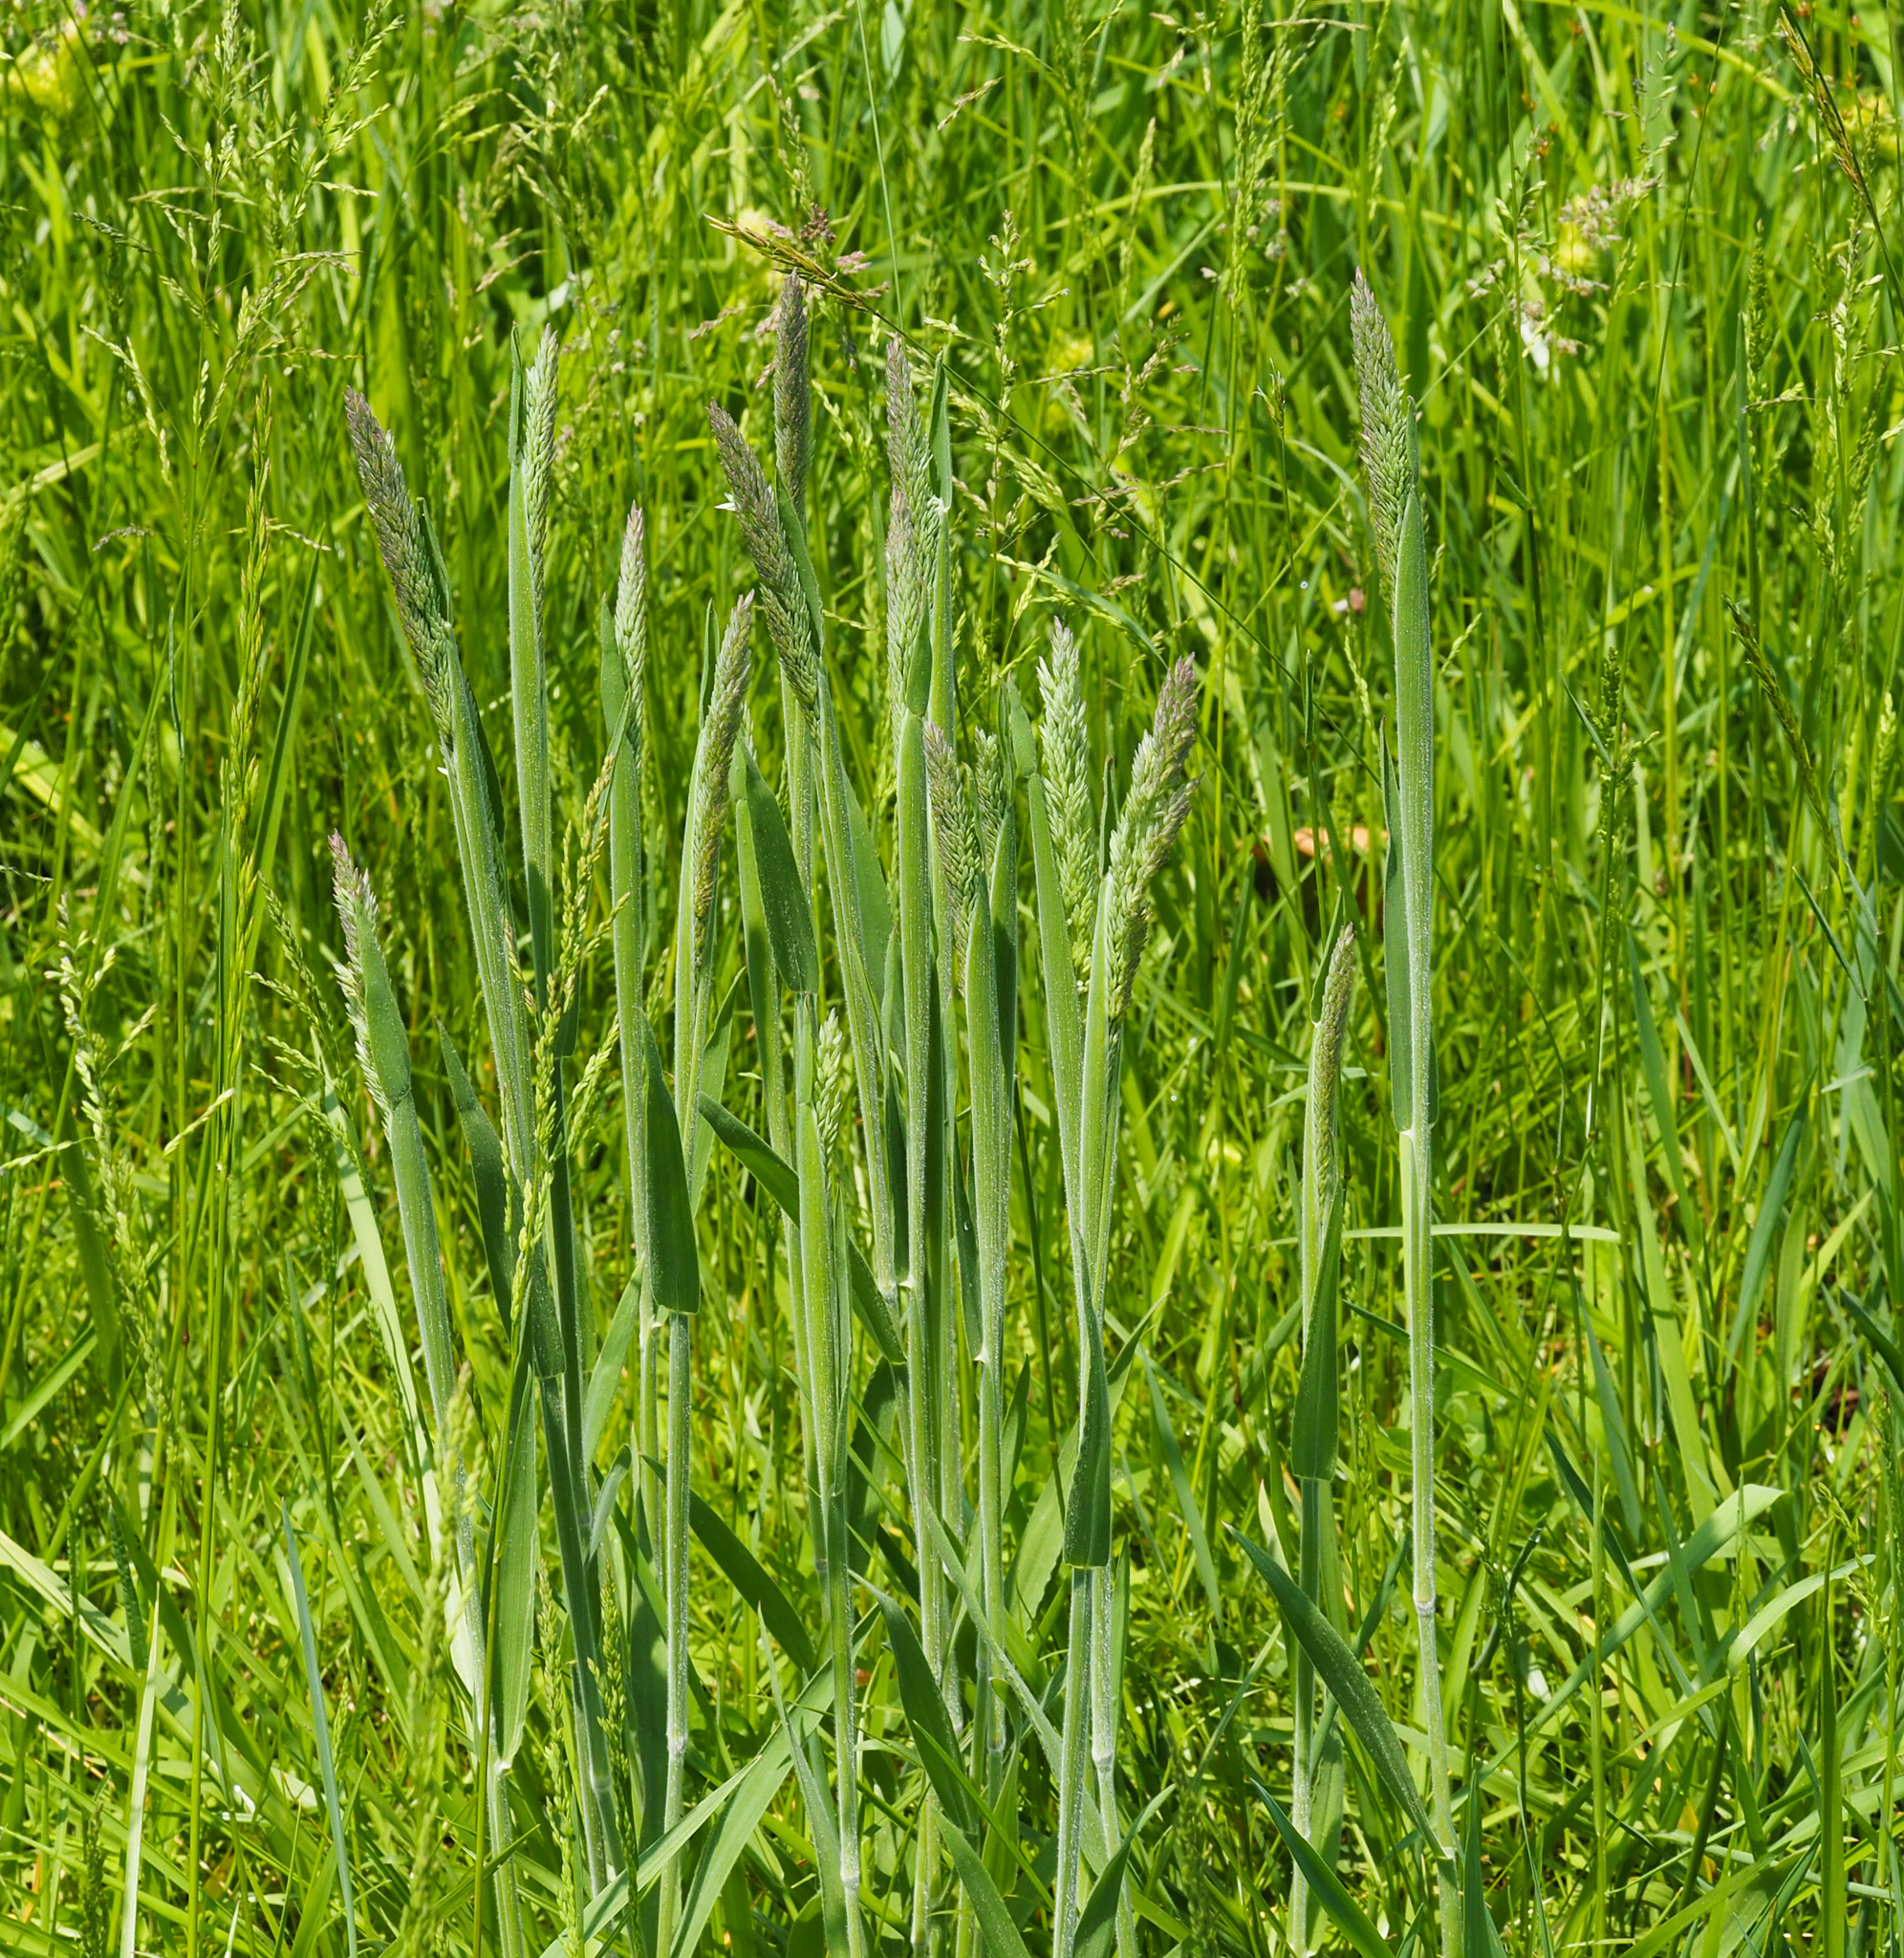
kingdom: Plantae
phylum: Tracheophyta
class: Liliopsida
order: Poales
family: Poaceae
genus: Holcus
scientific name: Holcus lanatus
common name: Yorkshire-fog
